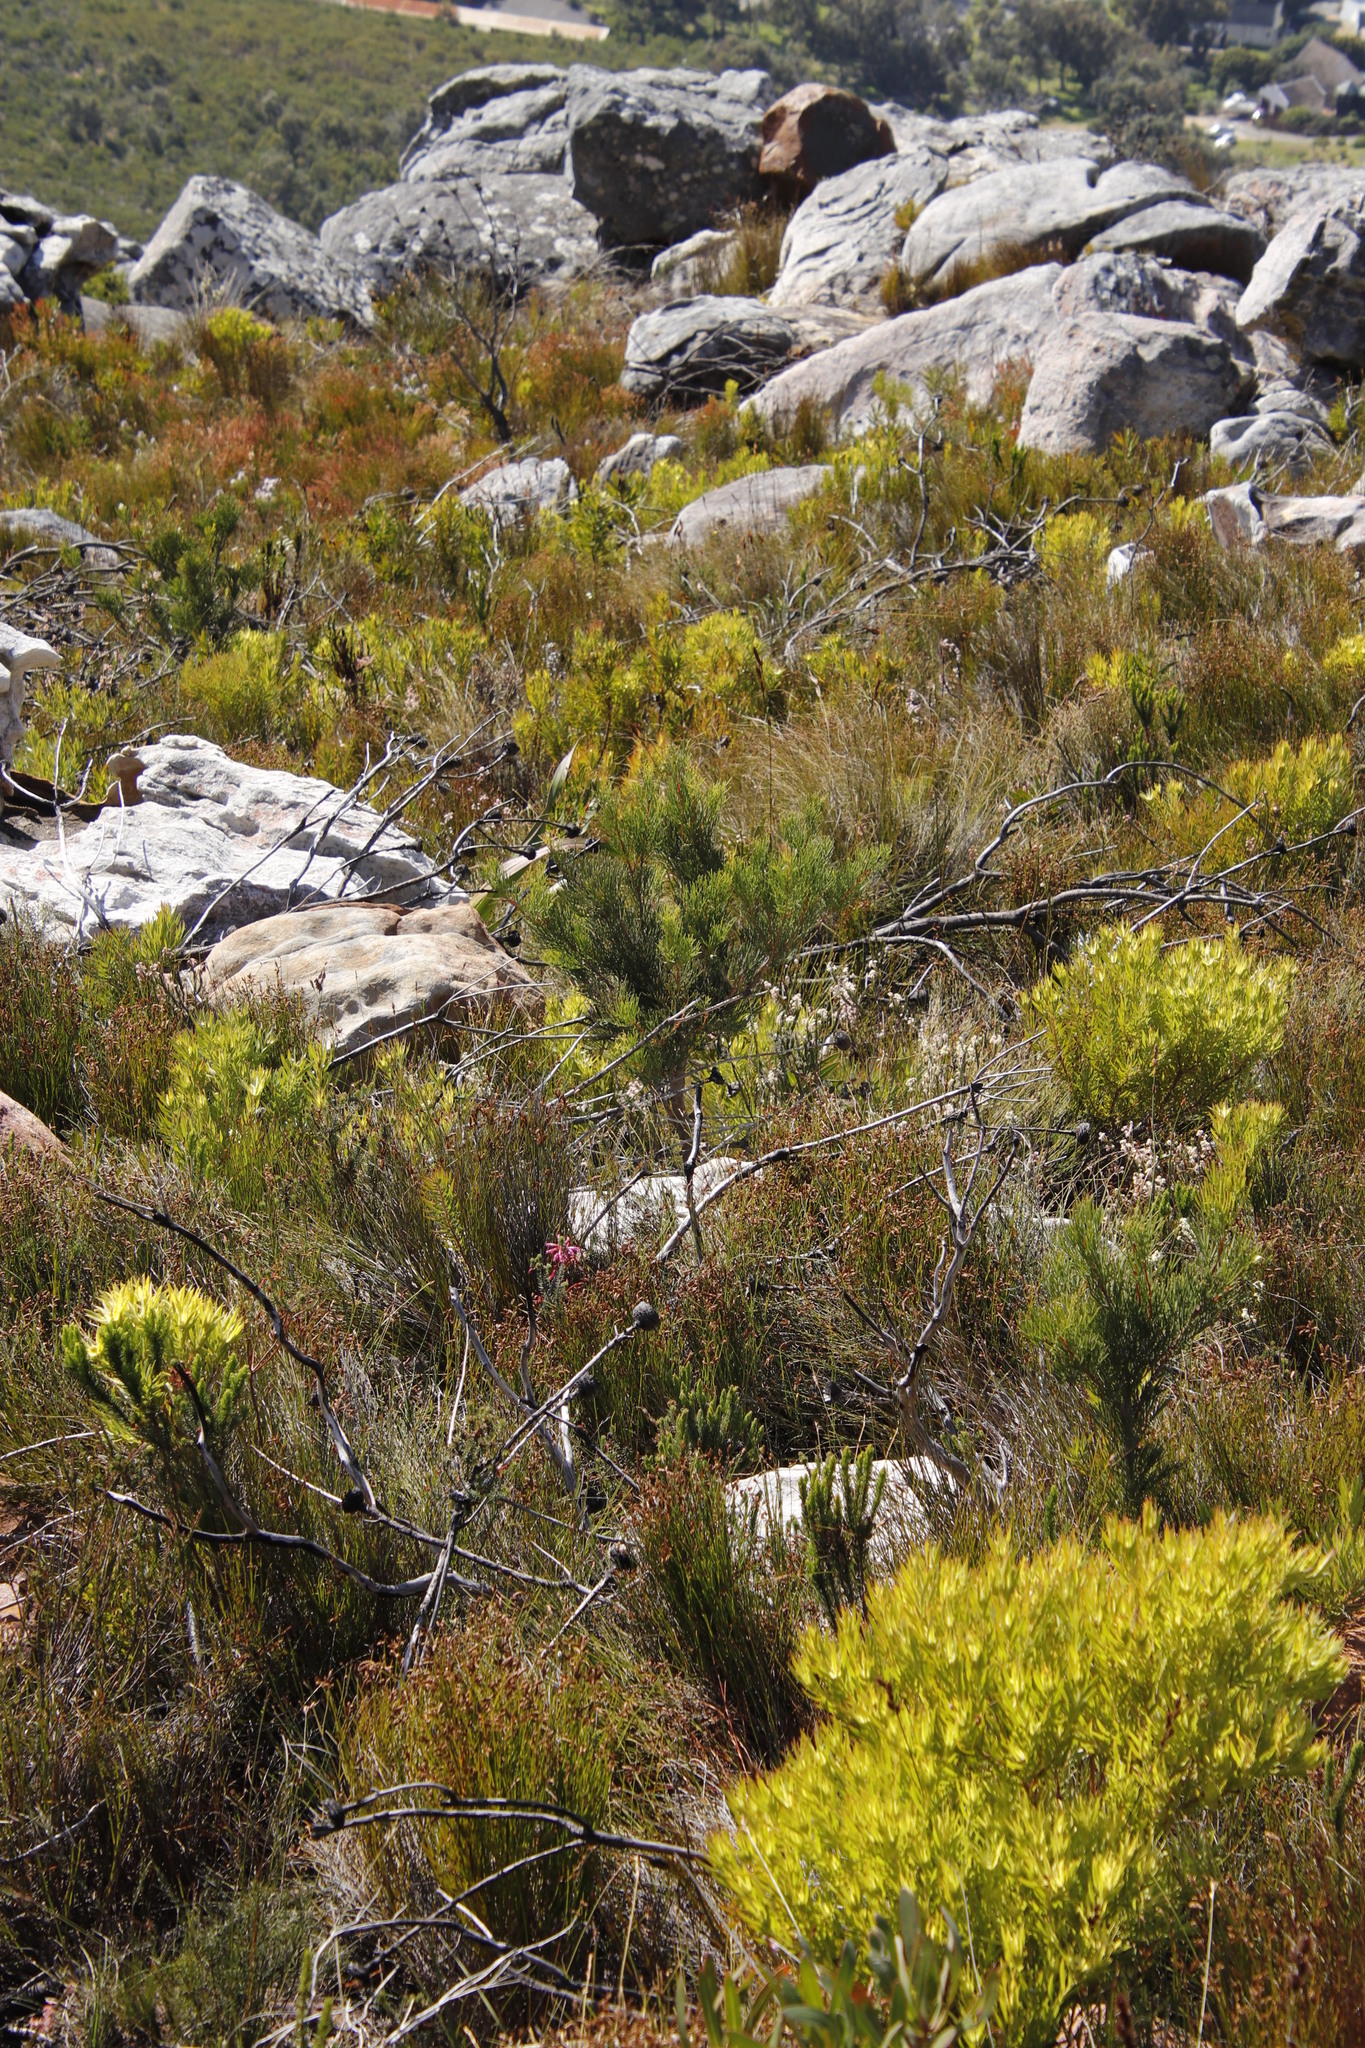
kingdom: Plantae
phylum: Tracheophyta
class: Magnoliopsida
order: Proteales
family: Proteaceae
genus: Hakea
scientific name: Hakea drupacea
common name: Sweet hakea
